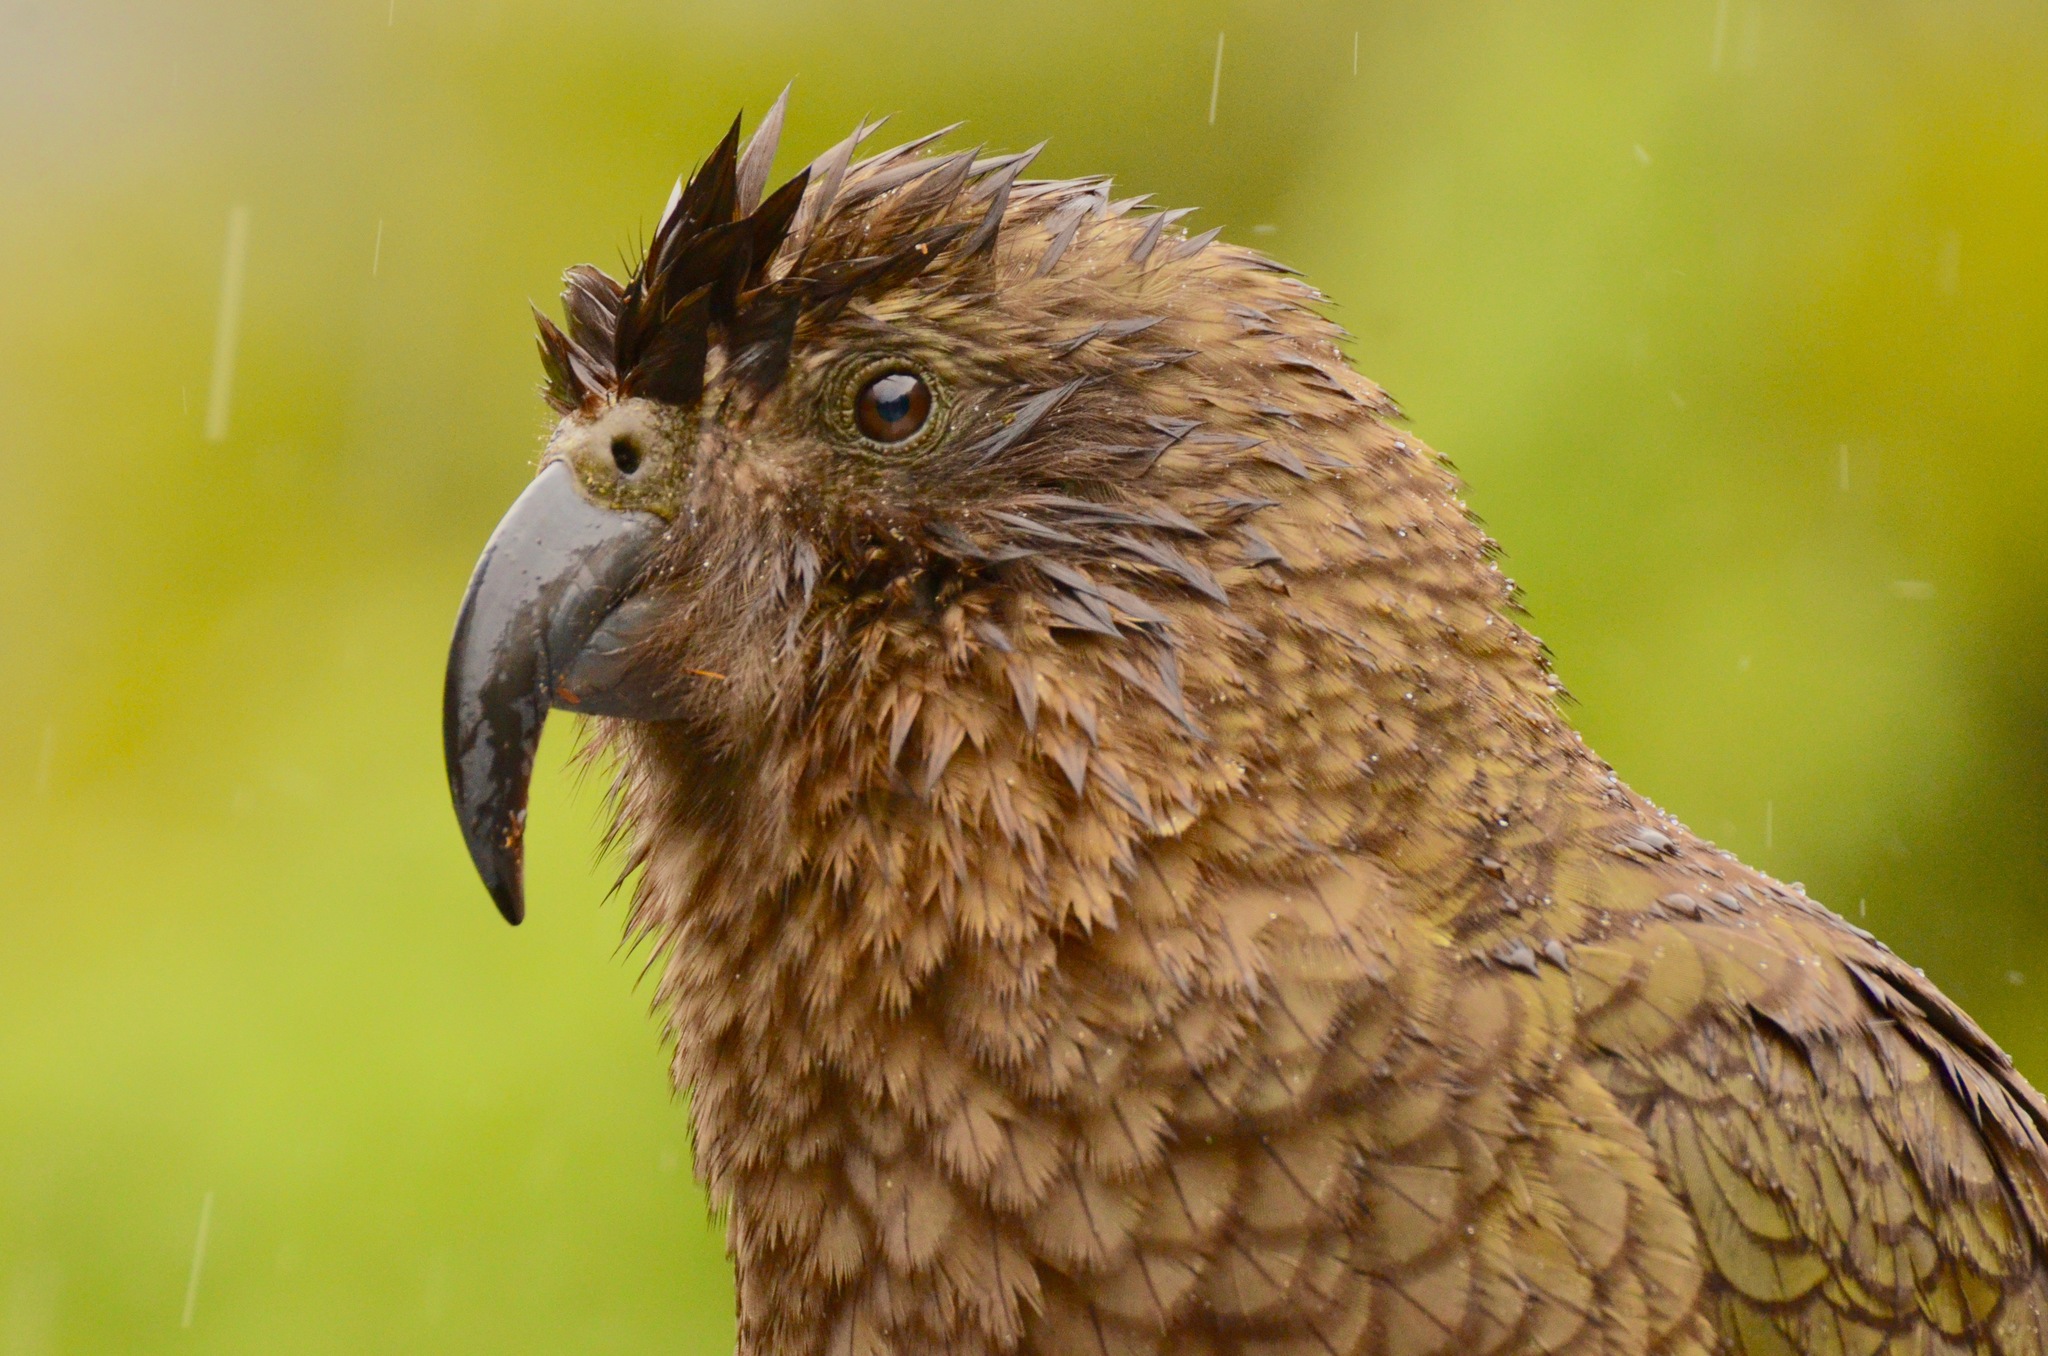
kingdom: Animalia
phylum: Chordata
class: Aves
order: Psittaciformes
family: Psittacidae
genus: Nestor
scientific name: Nestor notabilis
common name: Kea
